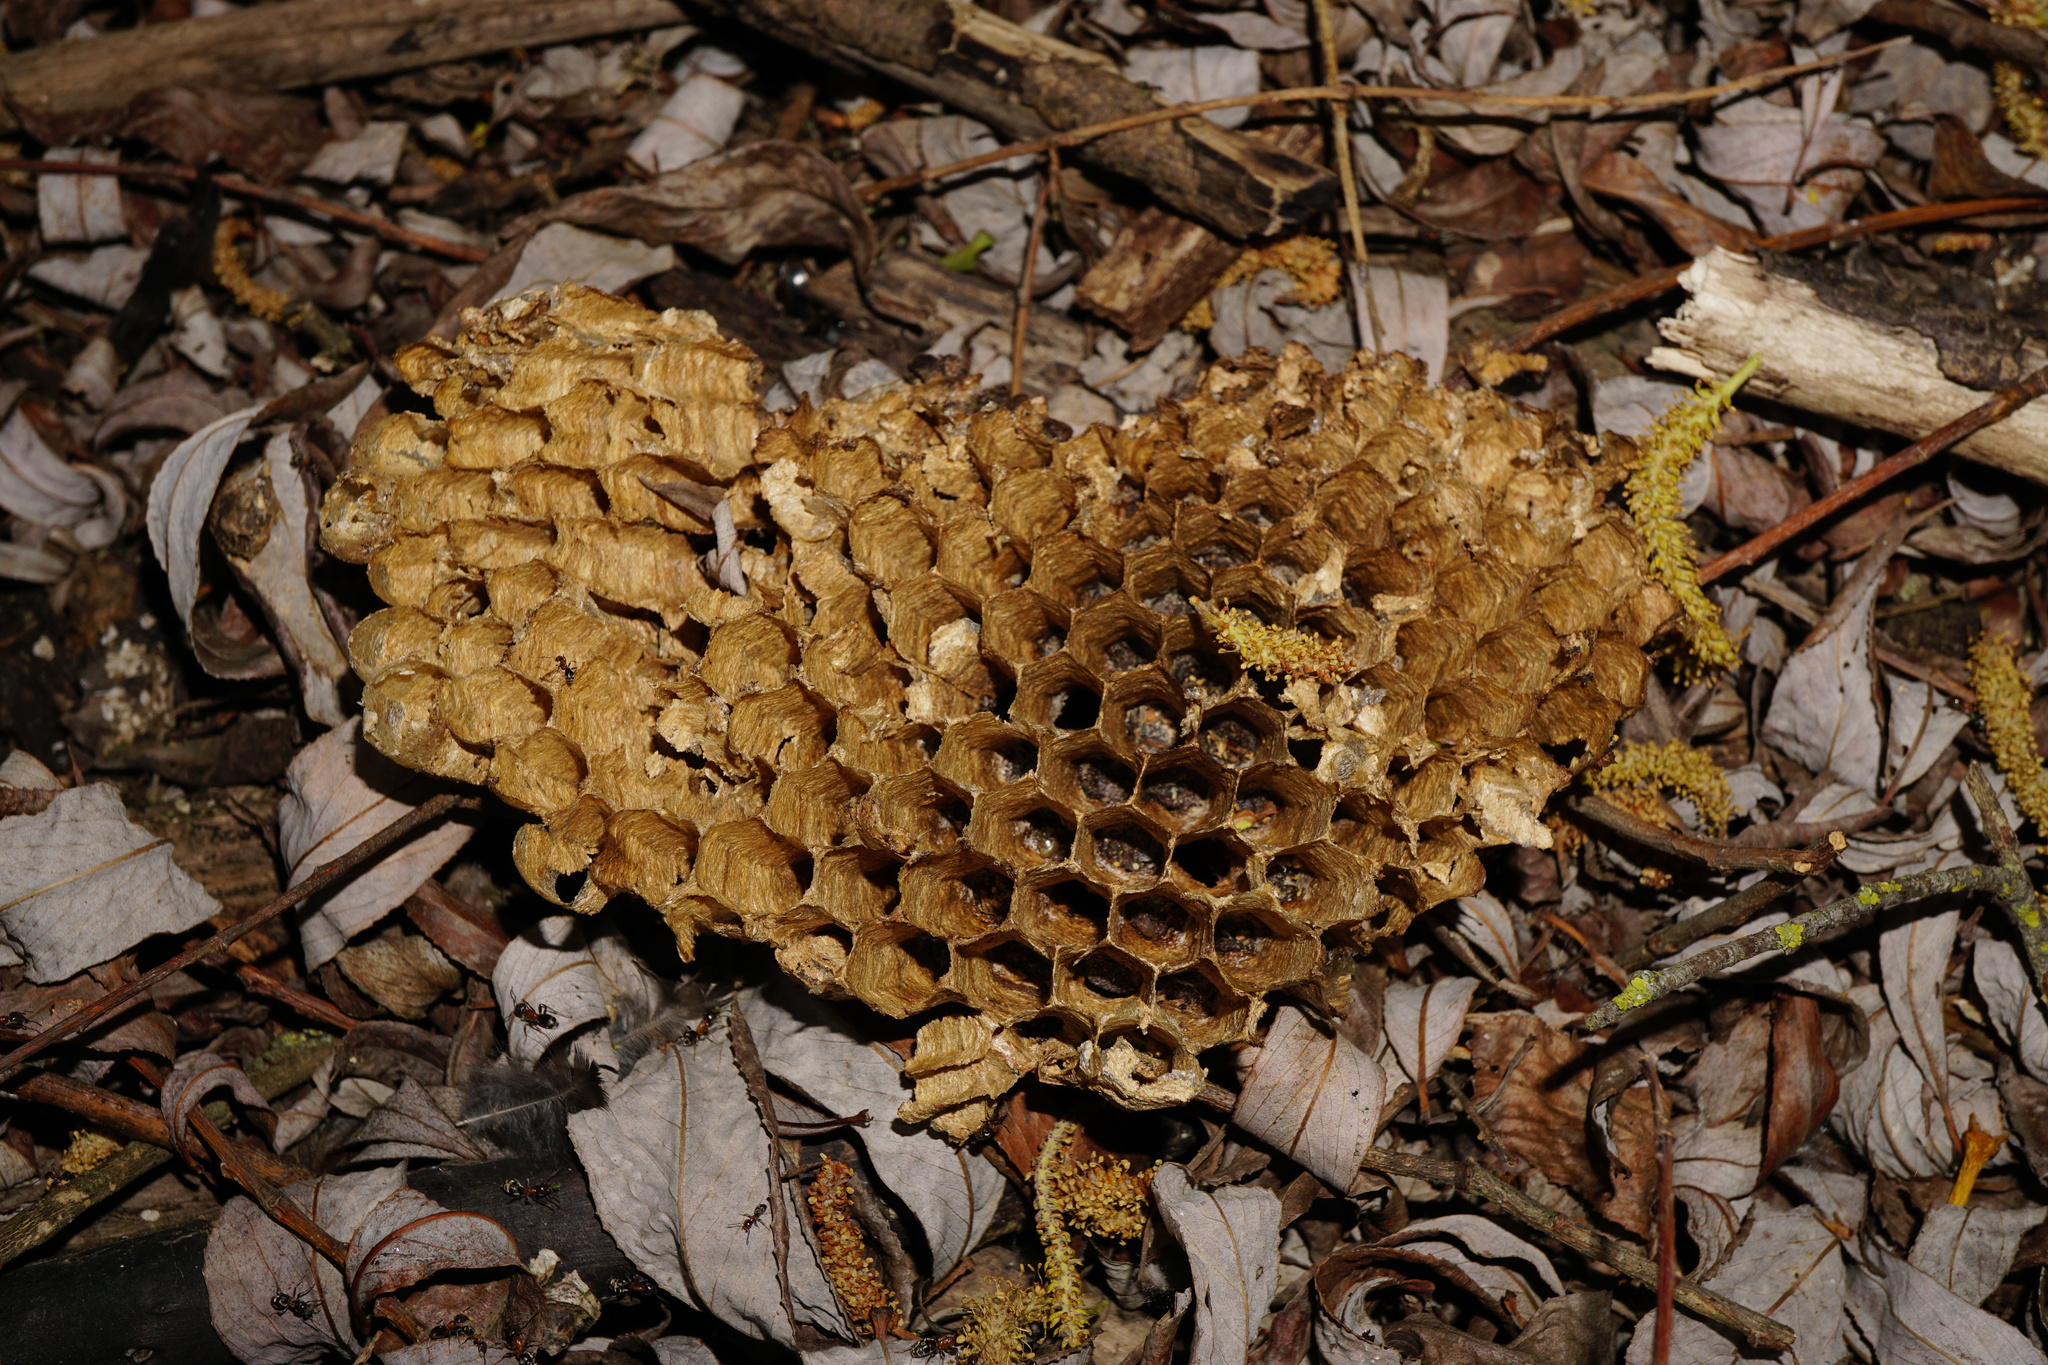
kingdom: Animalia
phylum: Arthropoda
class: Insecta
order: Hymenoptera
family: Vespidae
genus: Vespa
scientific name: Vespa crabro
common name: Hornet
